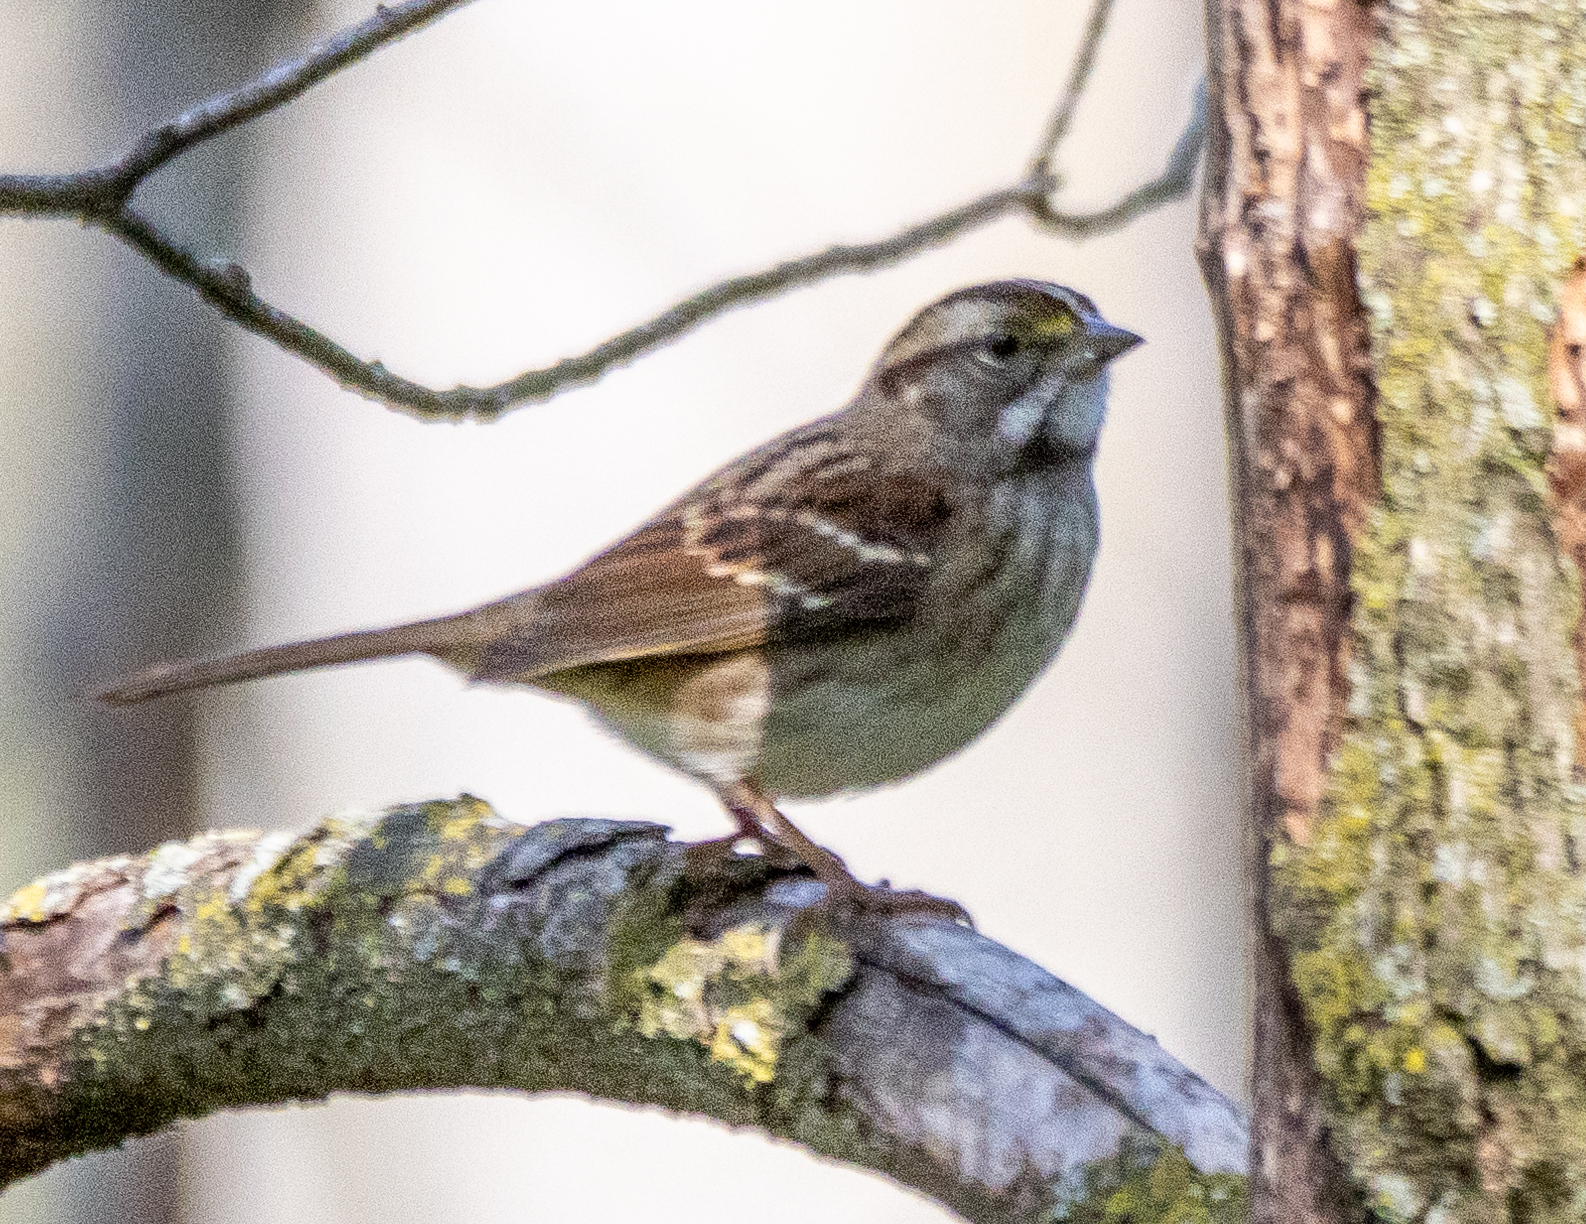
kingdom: Animalia
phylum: Chordata
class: Aves
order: Passeriformes
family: Passerellidae
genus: Zonotrichia
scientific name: Zonotrichia albicollis
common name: White-throated sparrow
